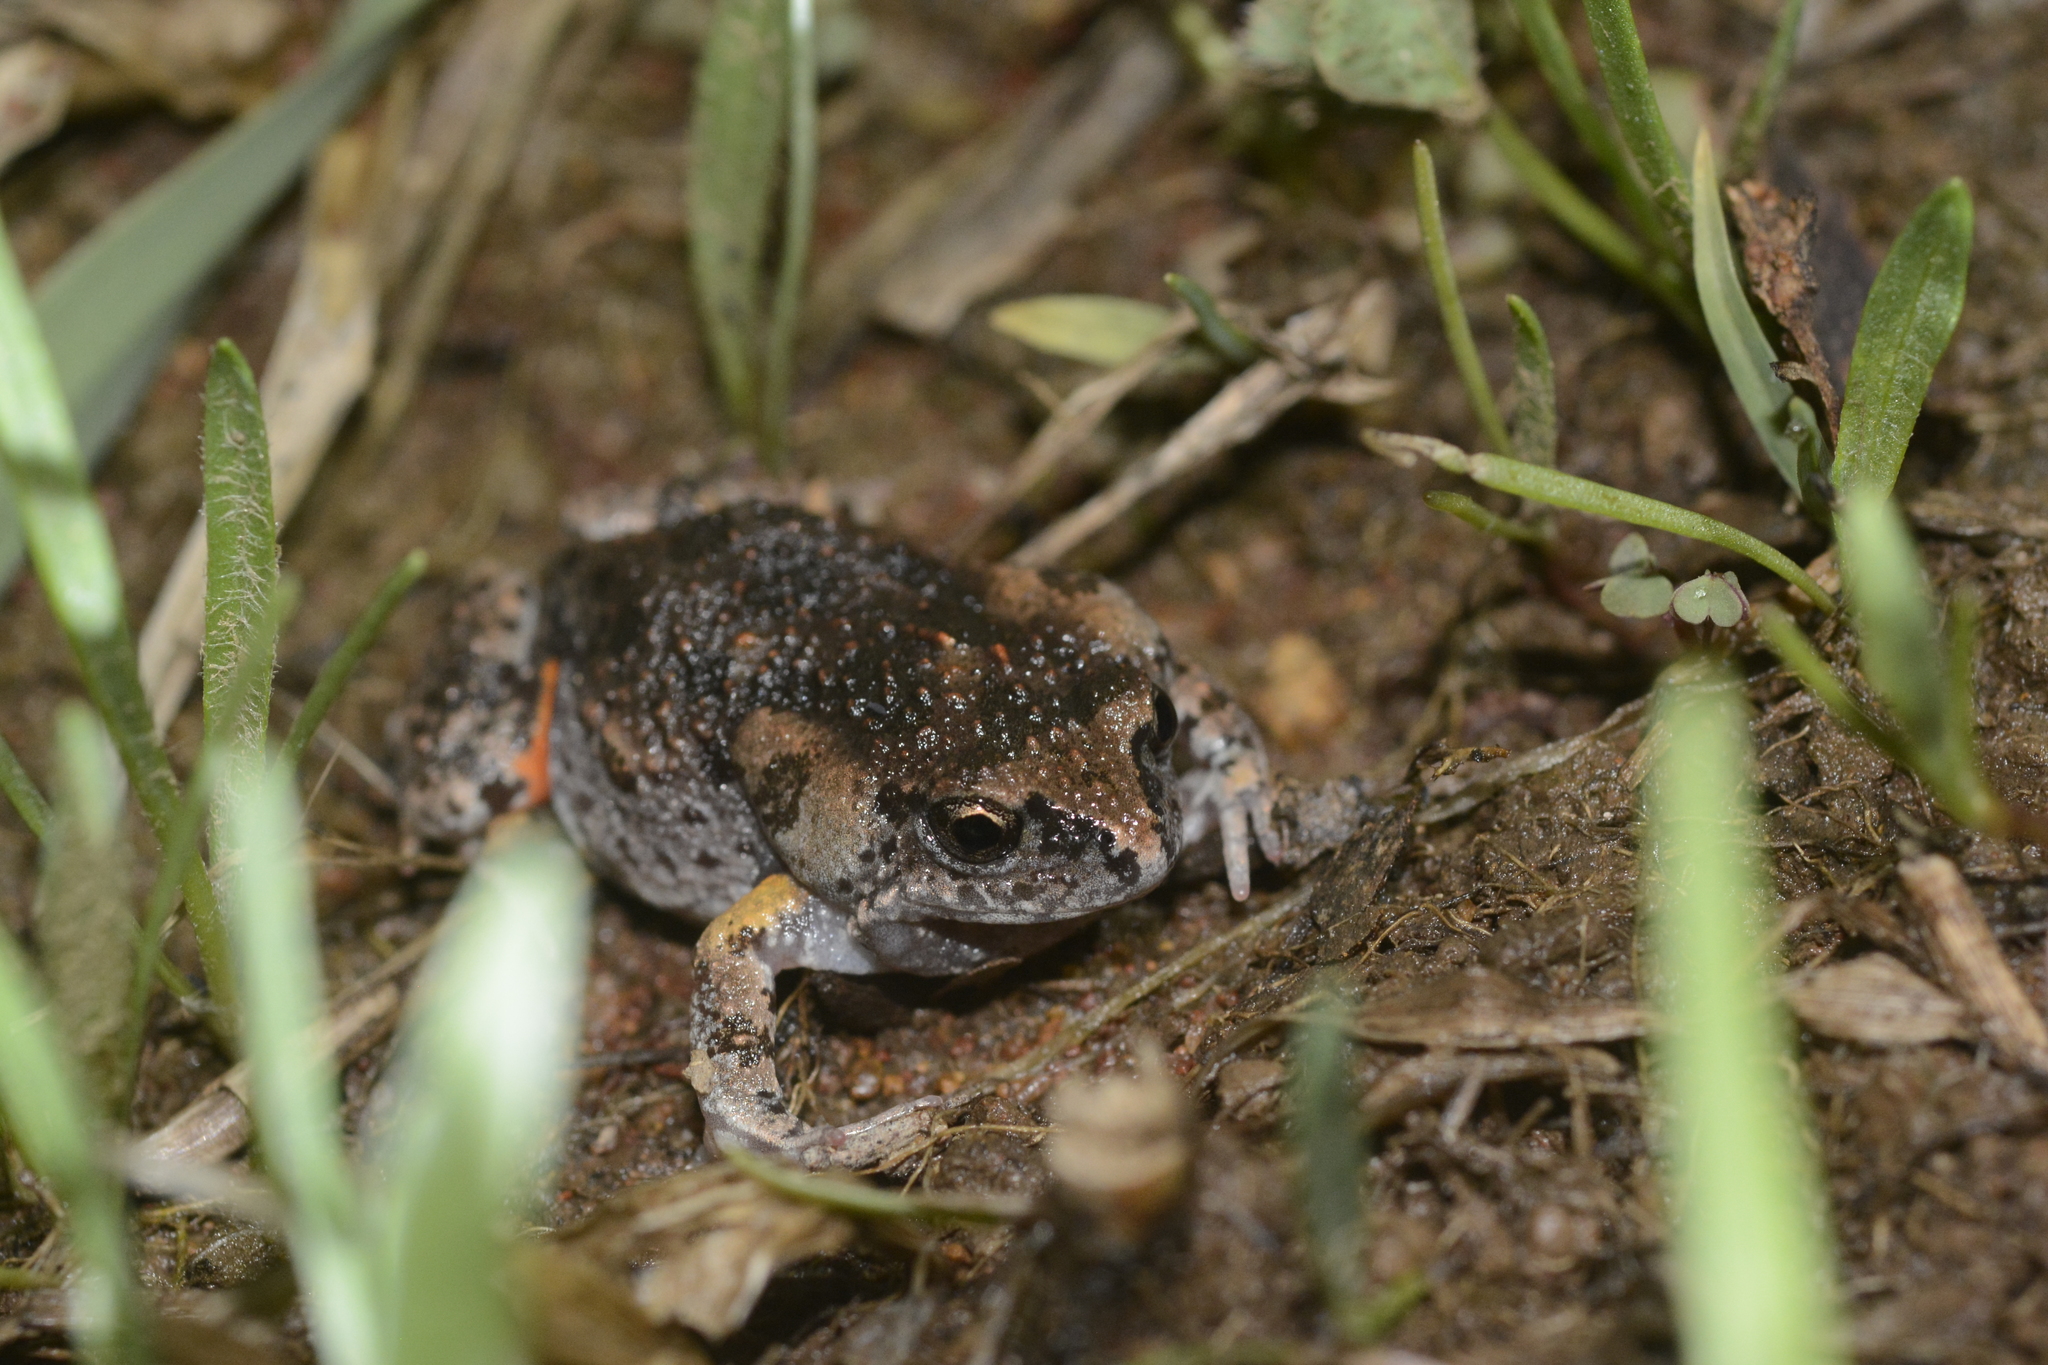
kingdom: Animalia
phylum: Chordata
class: Amphibia
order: Anura
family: Myobatrachidae
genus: Uperoleia
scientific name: Uperoleia laevigata
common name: Smooth toadlet
